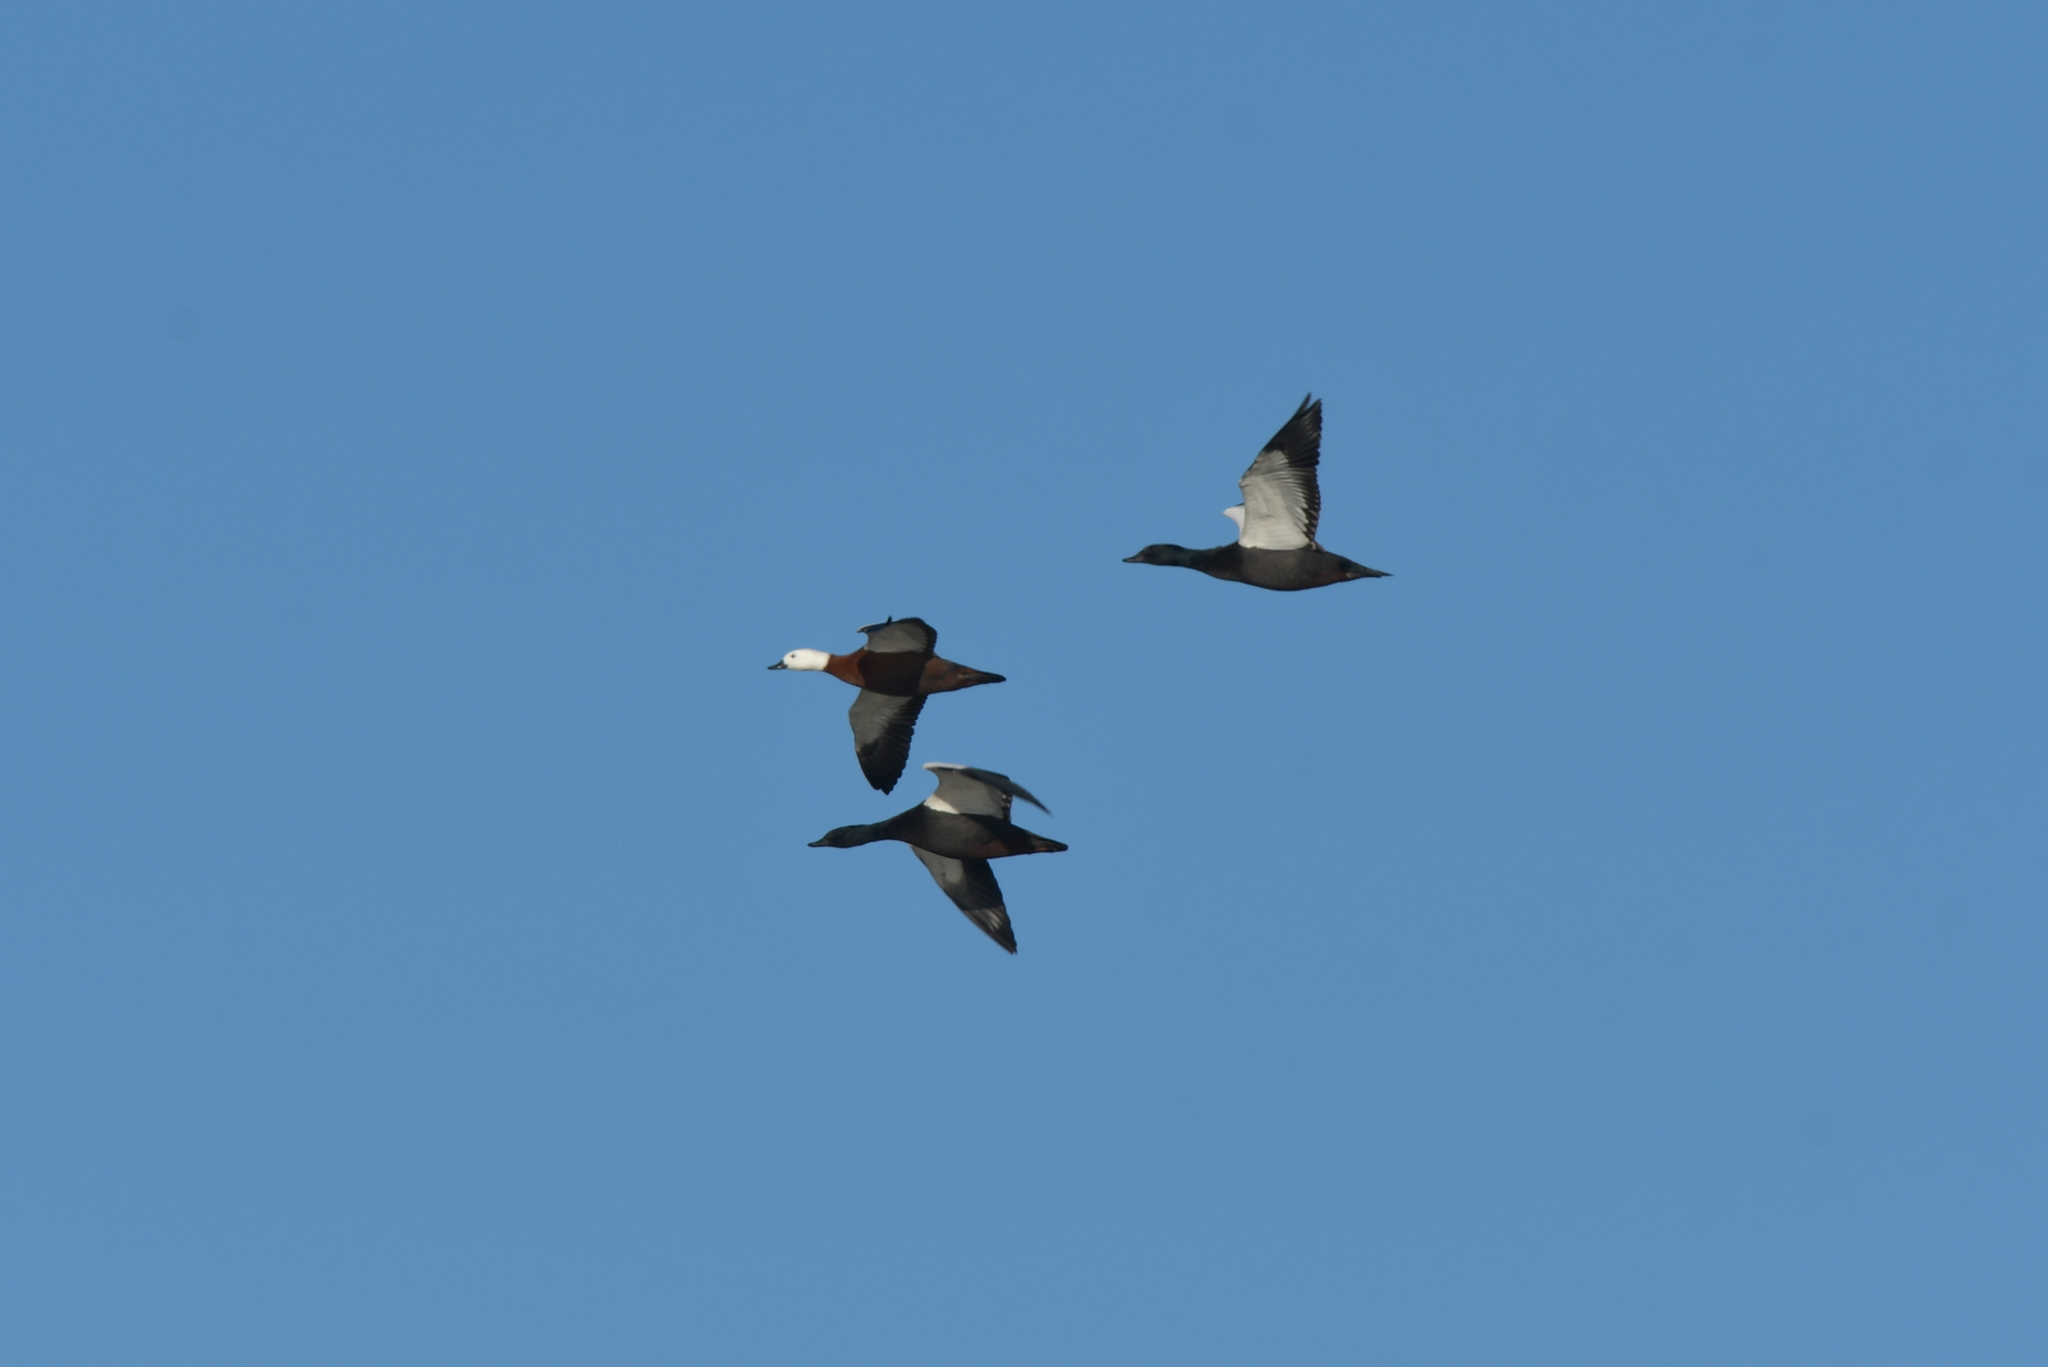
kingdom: Animalia
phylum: Chordata
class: Aves
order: Anseriformes
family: Anatidae
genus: Tadorna
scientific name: Tadorna variegata
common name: Paradise shelduck
